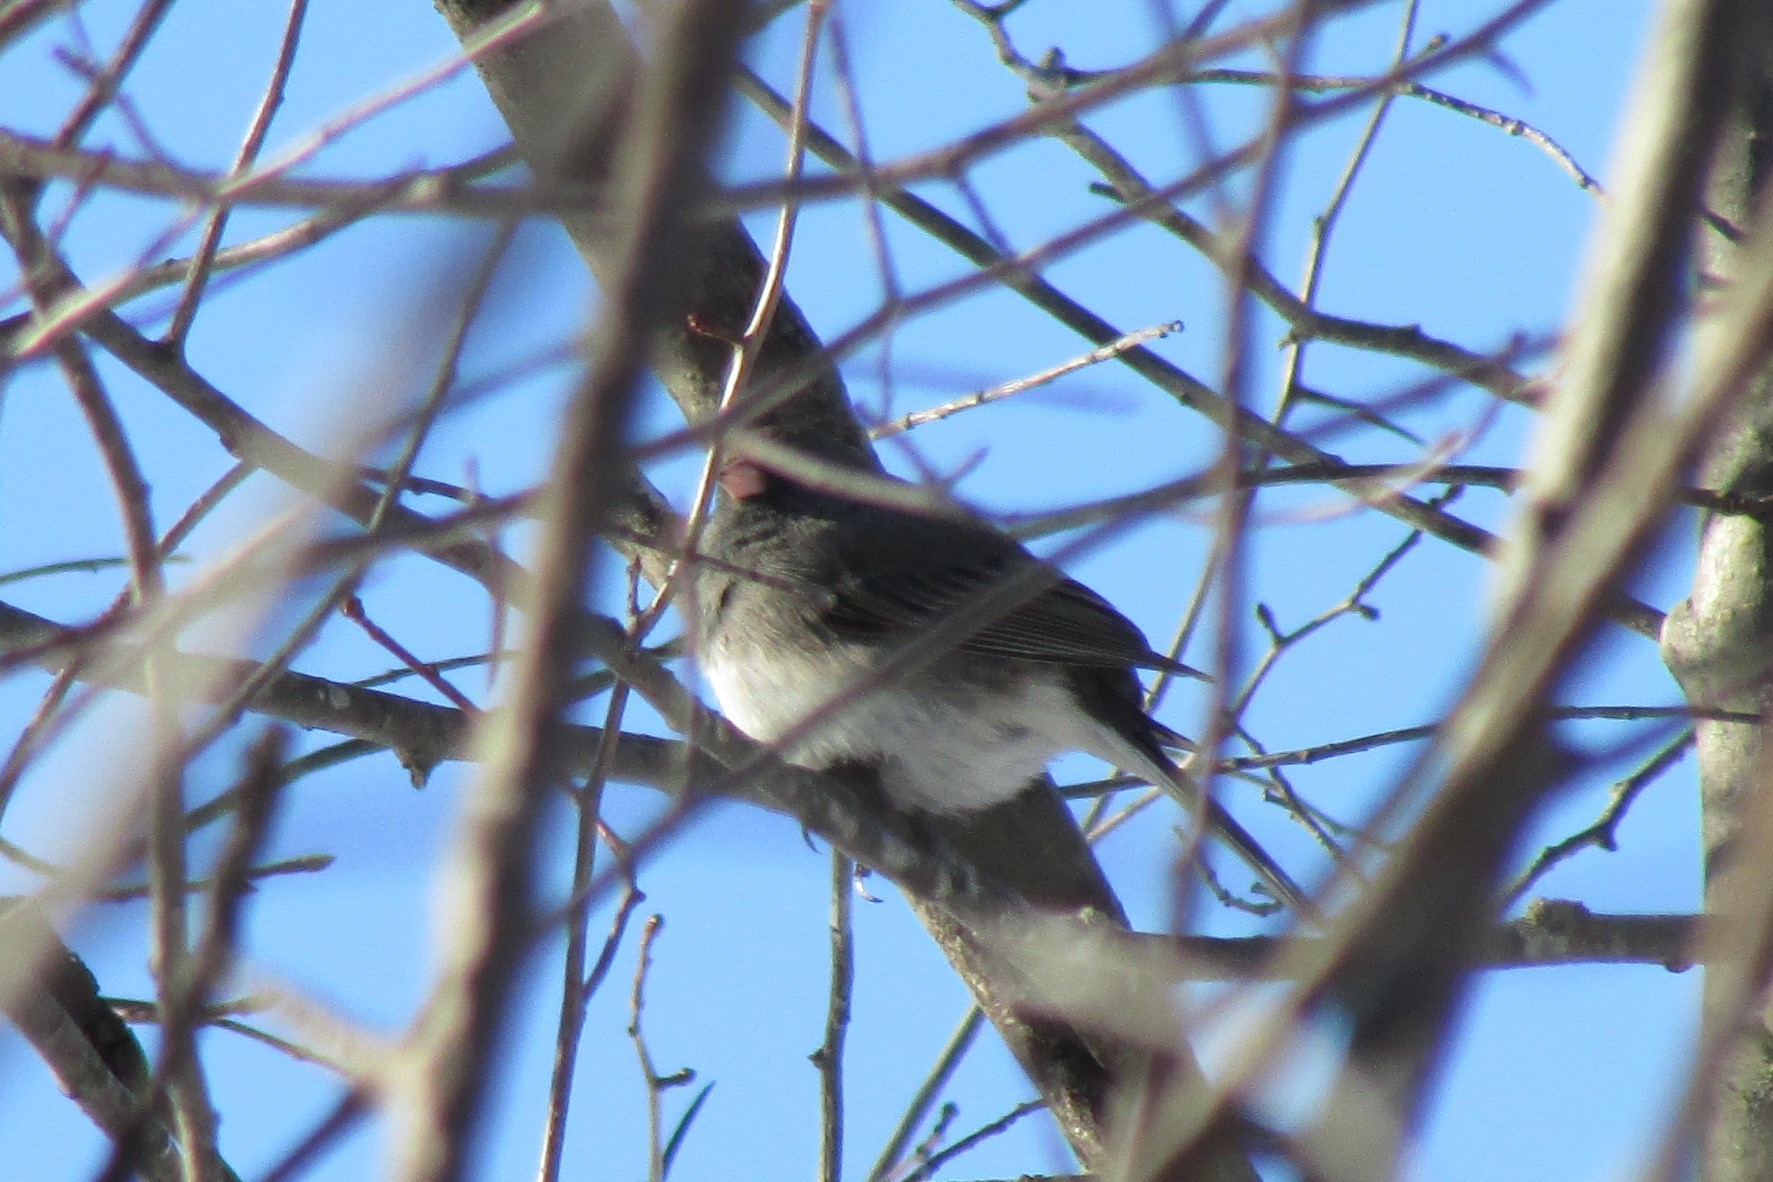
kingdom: Animalia
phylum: Chordata
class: Aves
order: Passeriformes
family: Passerellidae
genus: Junco
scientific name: Junco hyemalis
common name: Dark-eyed junco
